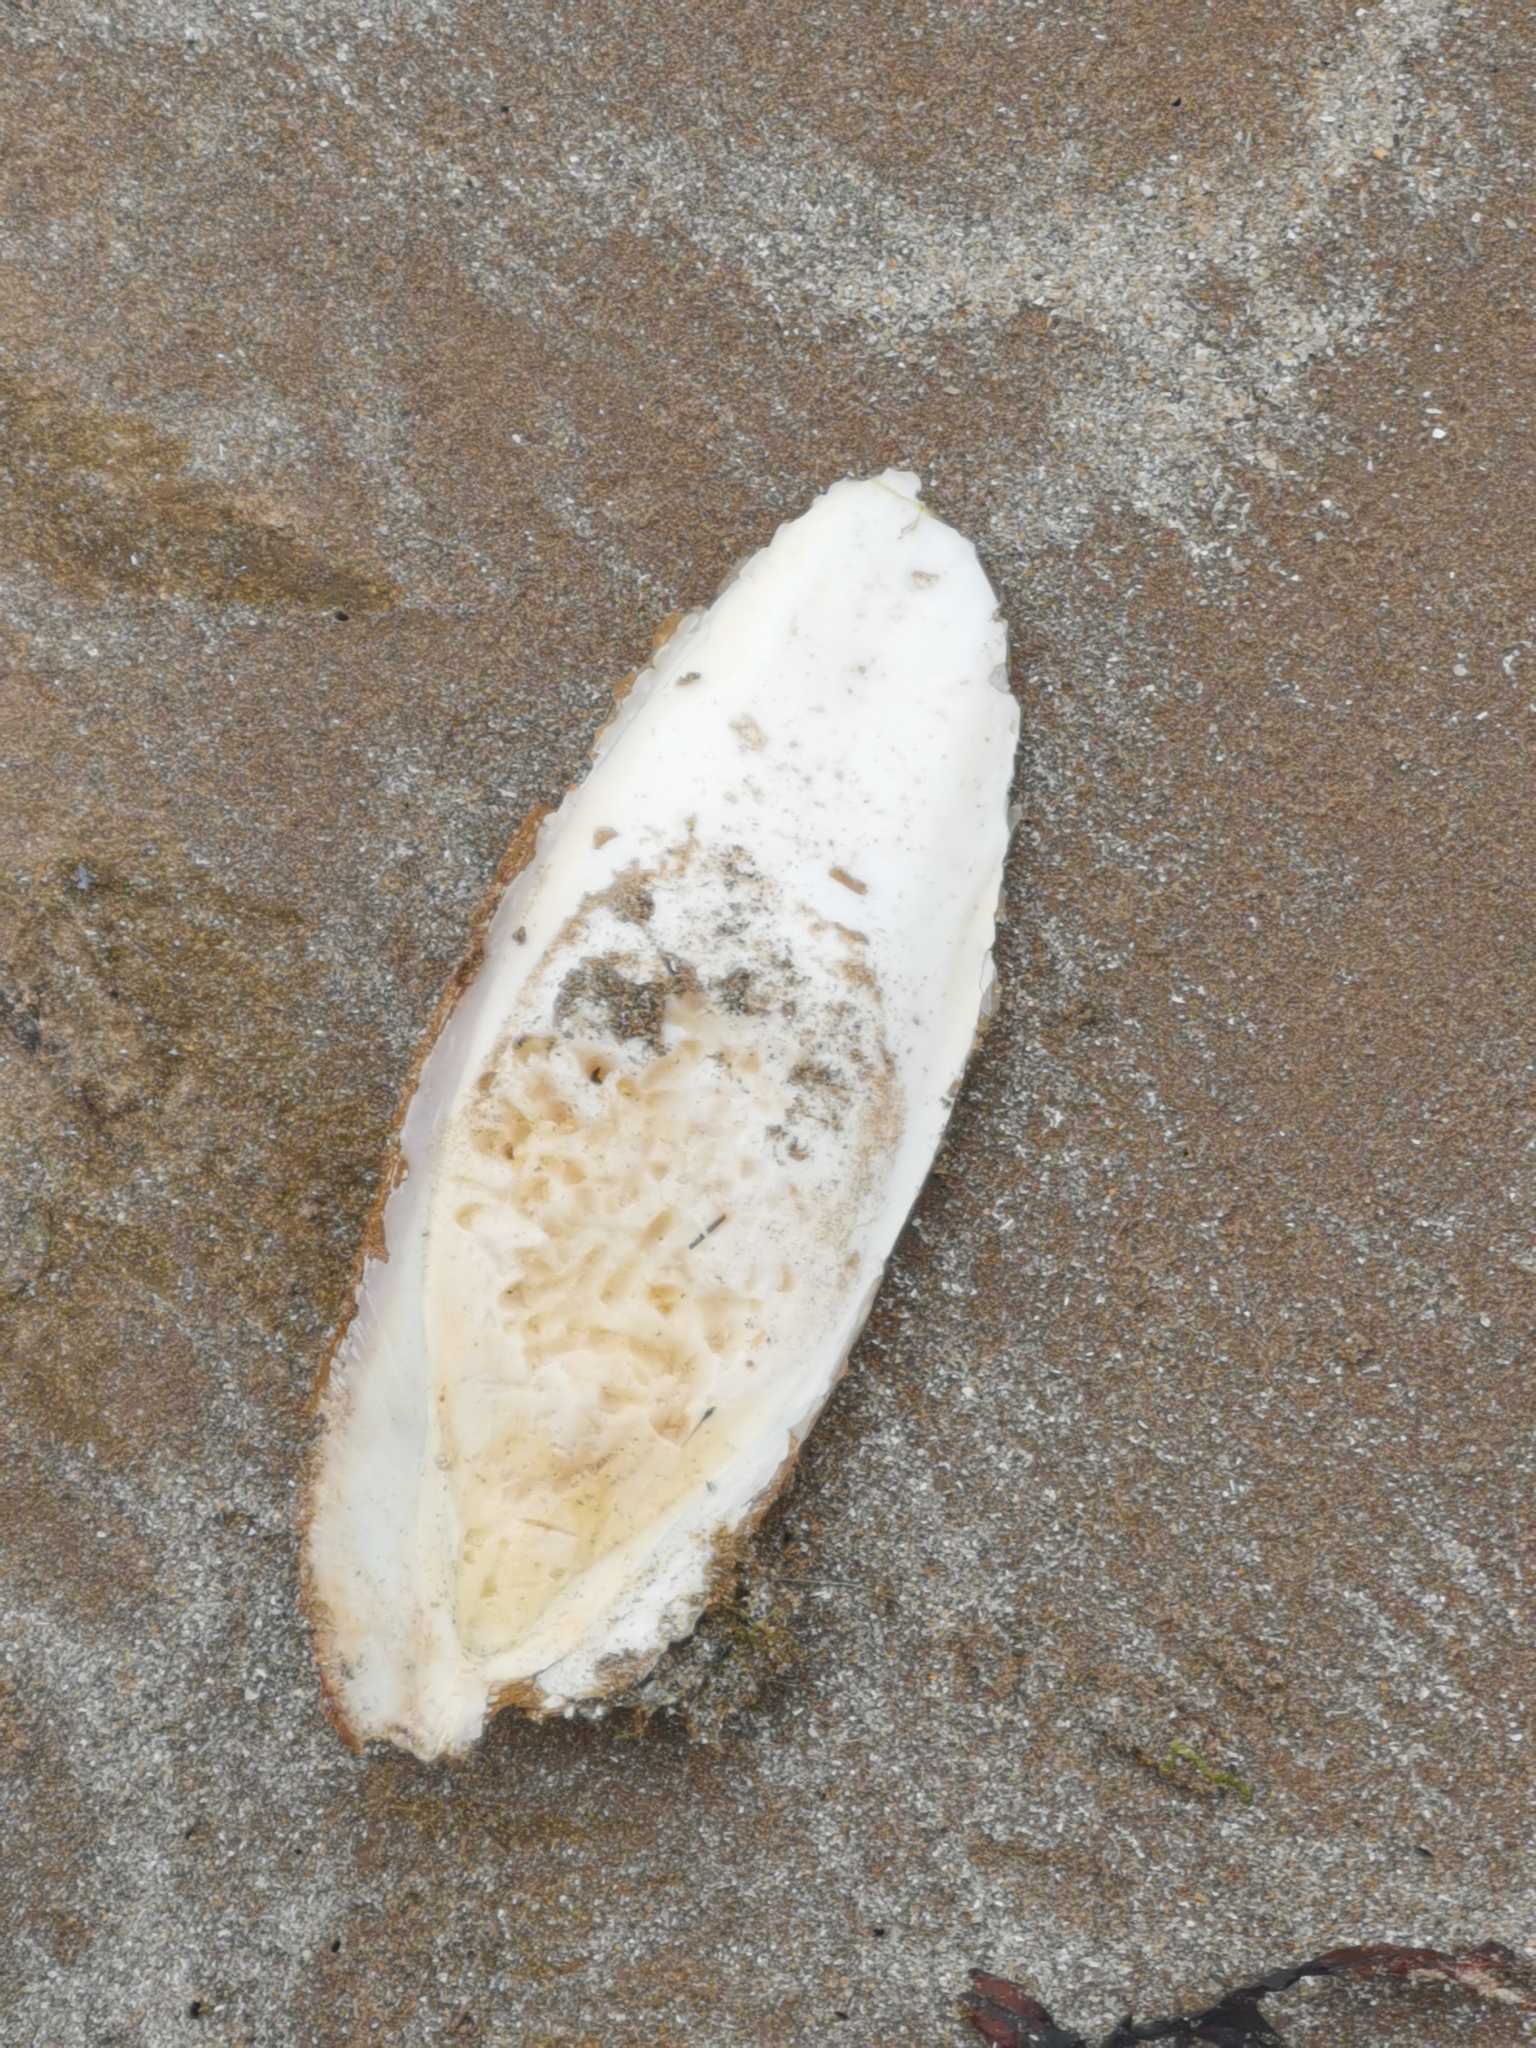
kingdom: Animalia
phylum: Mollusca
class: Cephalopoda
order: Sepiida
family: Sepiidae
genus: Sepia
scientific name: Sepia officinalis
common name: Common cuttlefish
